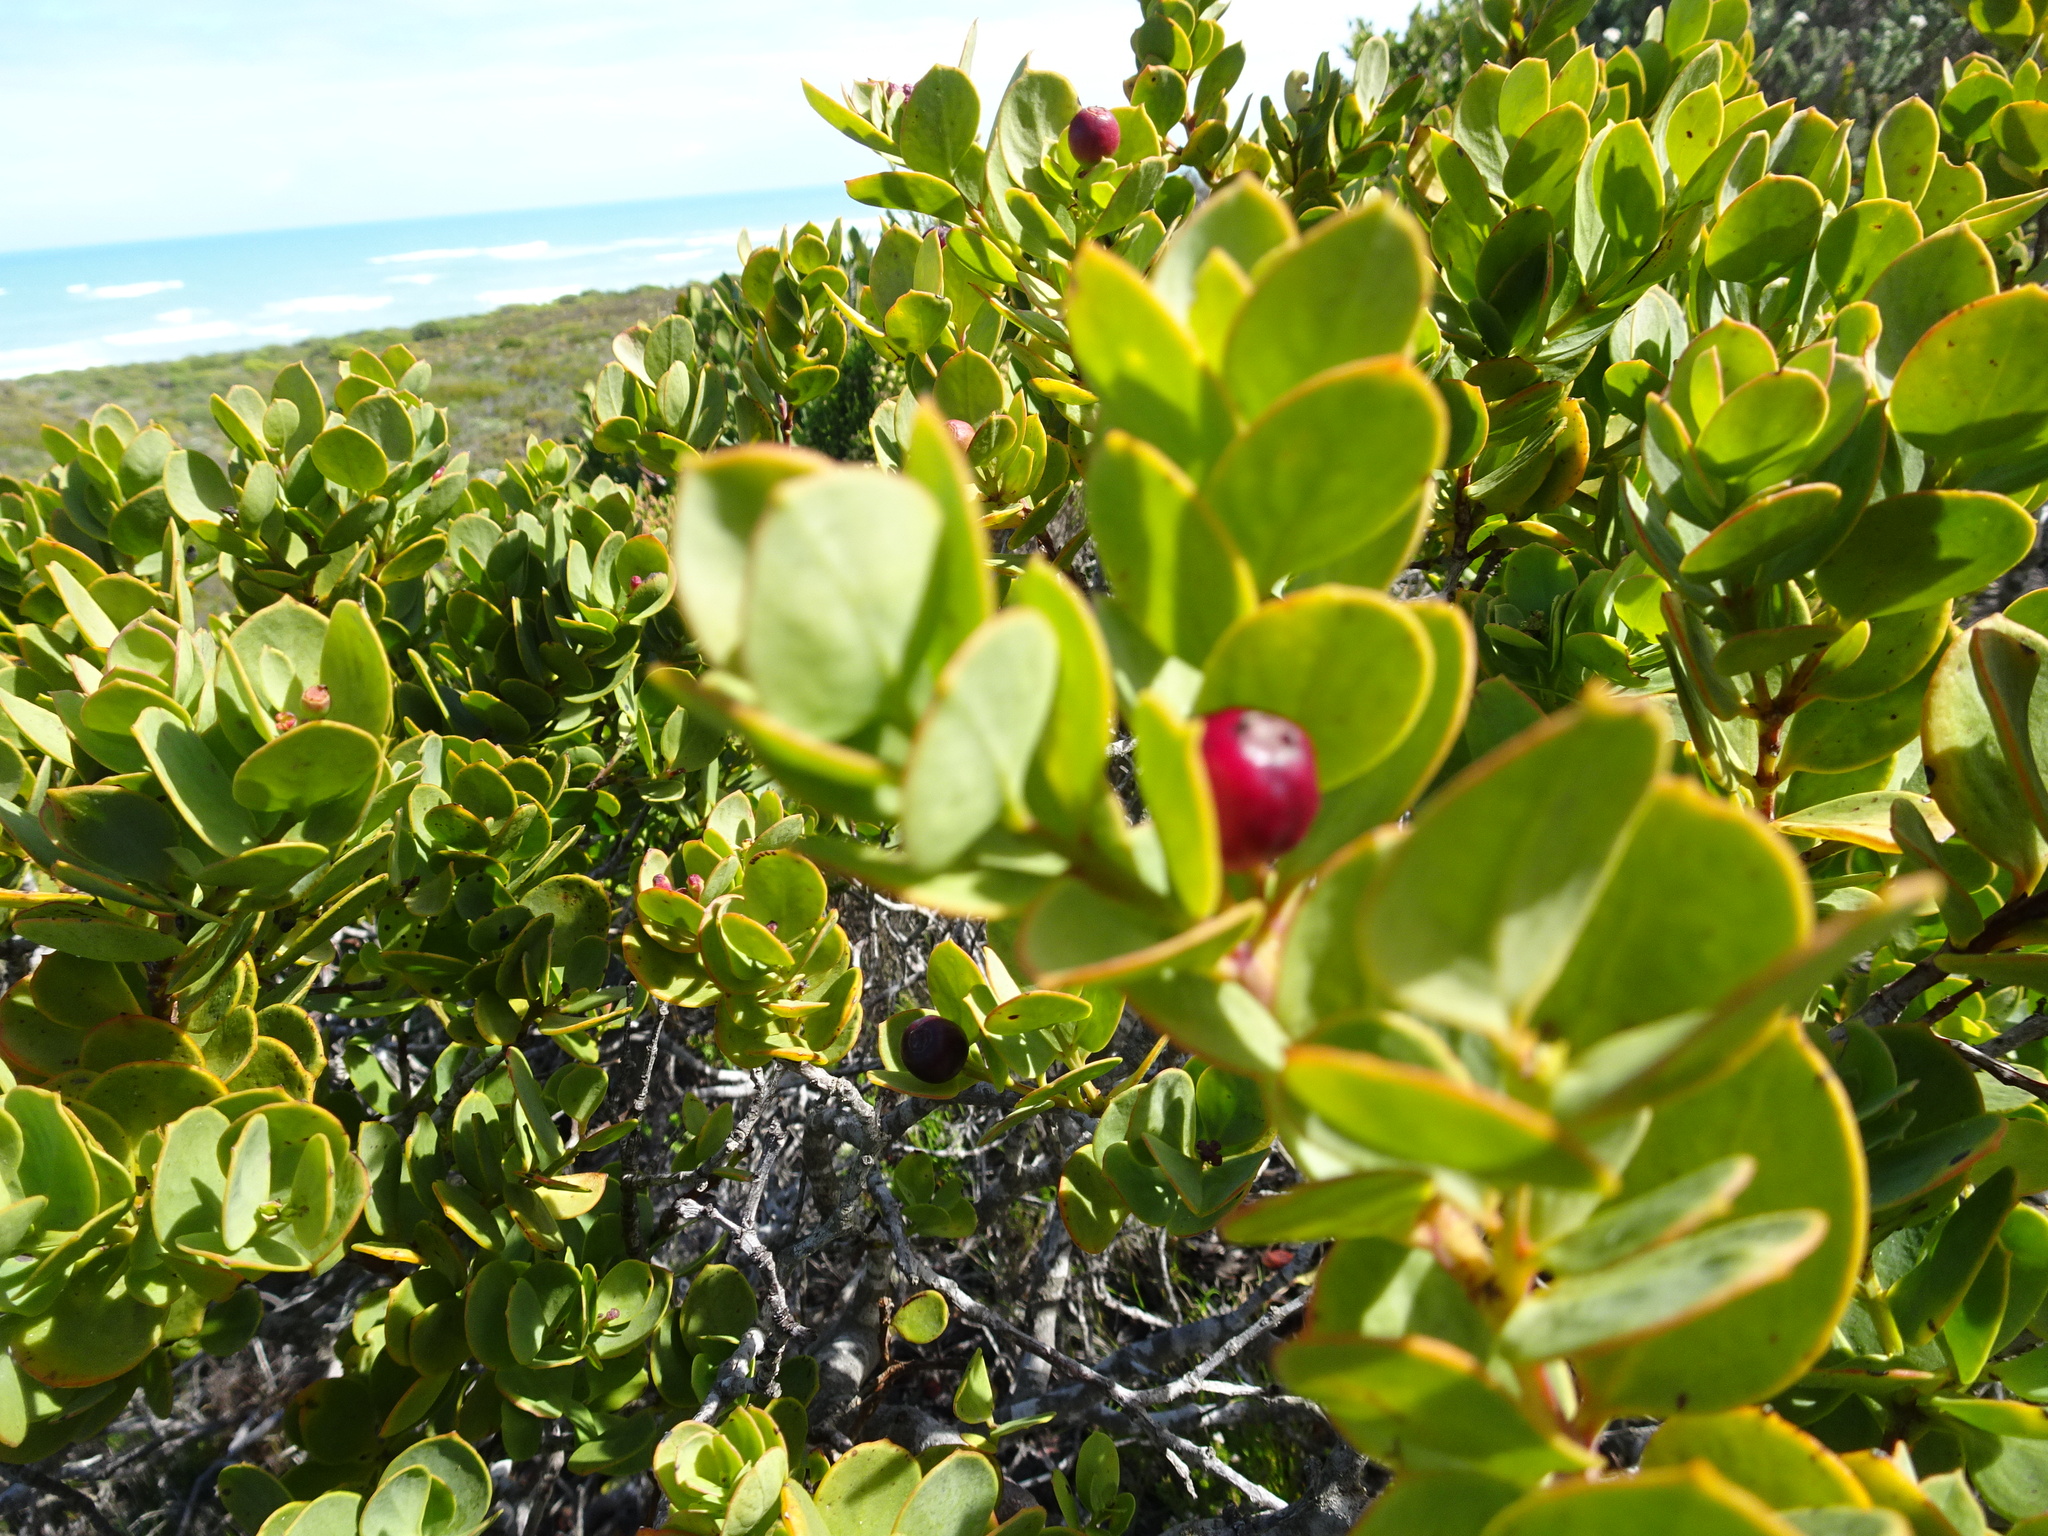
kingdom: Plantae
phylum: Tracheophyta
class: Magnoliopsida
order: Santalales
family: Santalaceae
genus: Osyris
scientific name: Osyris compressa
